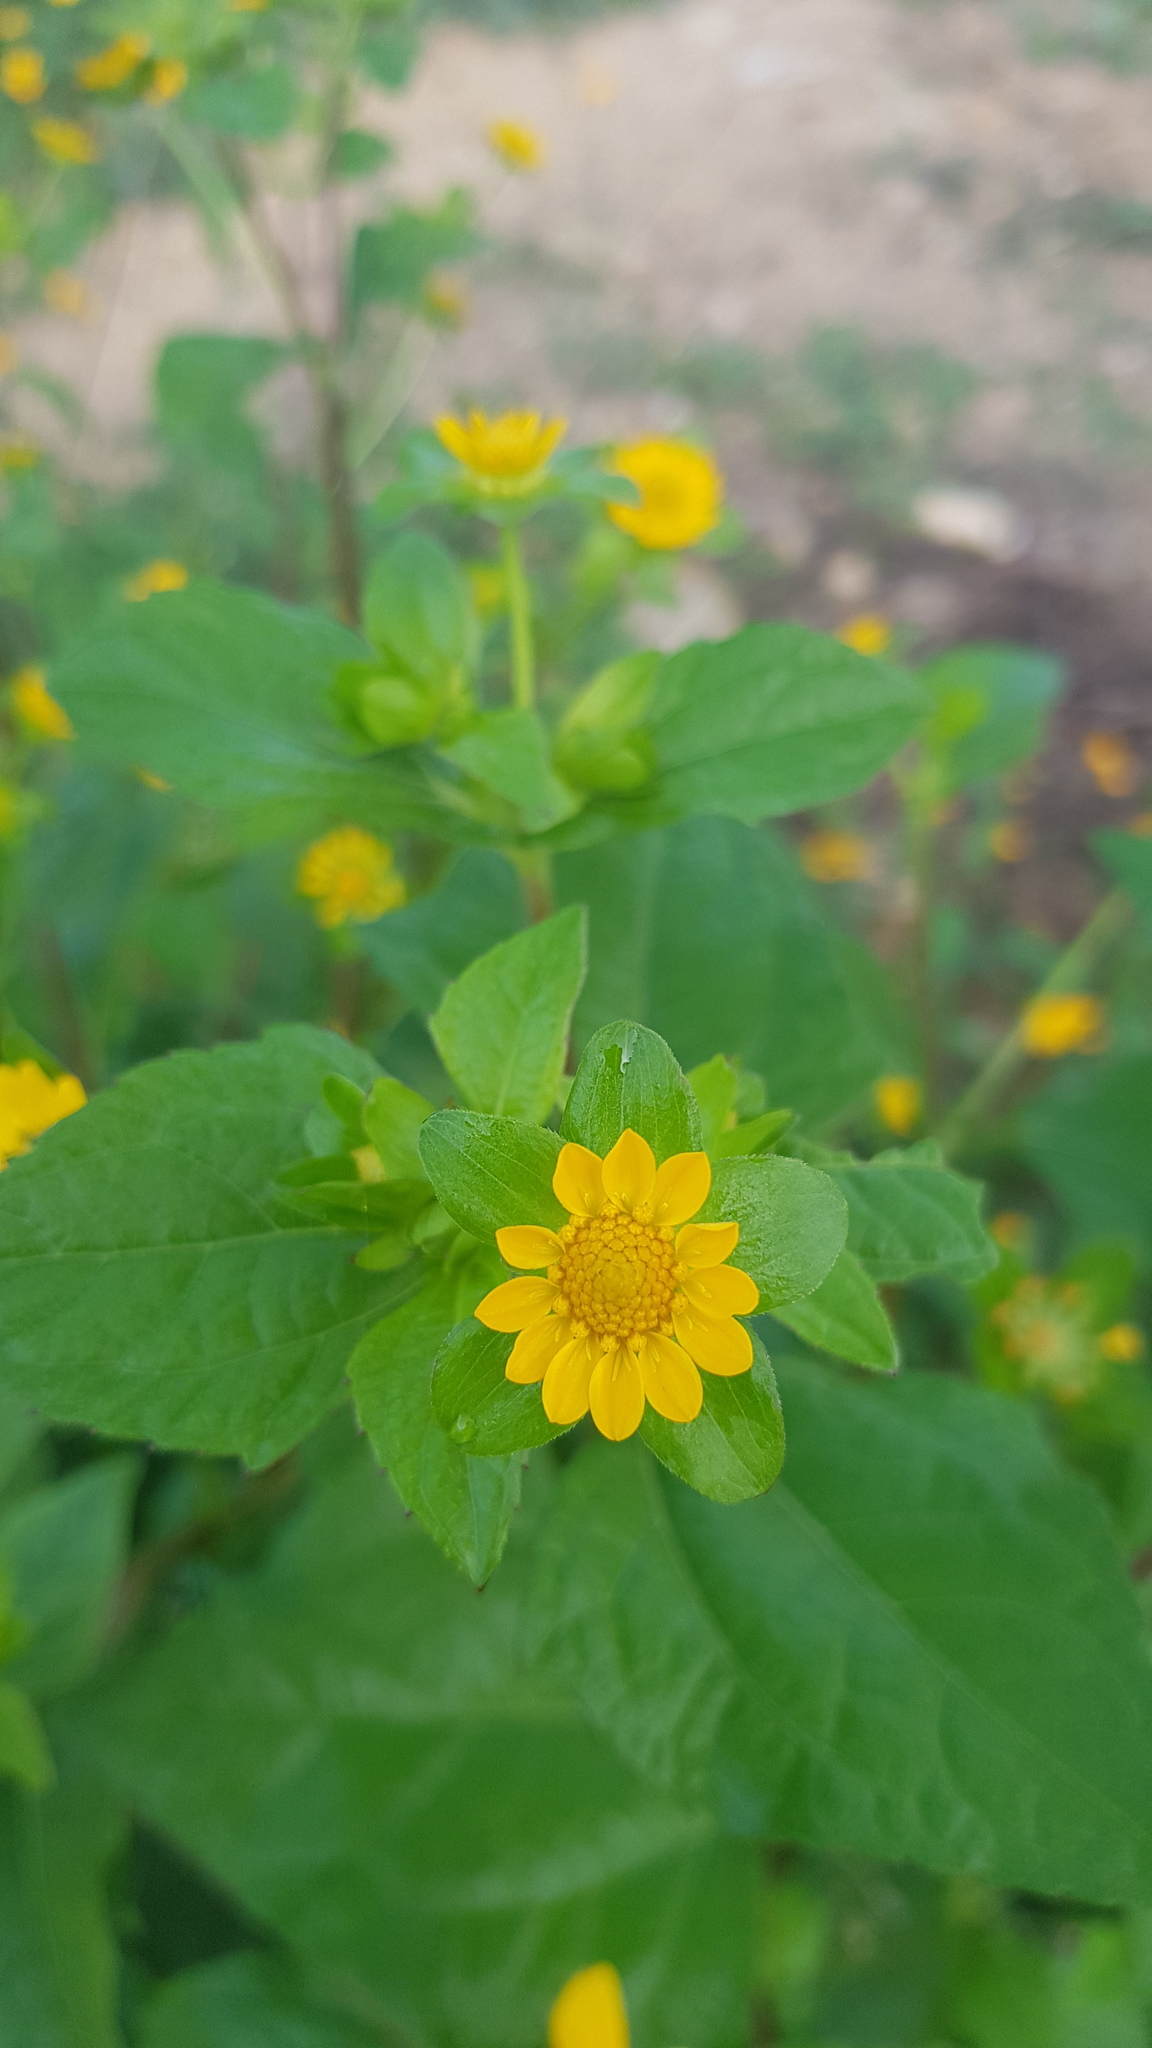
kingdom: Plantae
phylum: Tracheophyta
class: Magnoliopsida
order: Asterales
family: Asteraceae
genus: Melampodium
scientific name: Melampodium perfoliatum
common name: Perfoliate blackfoot
